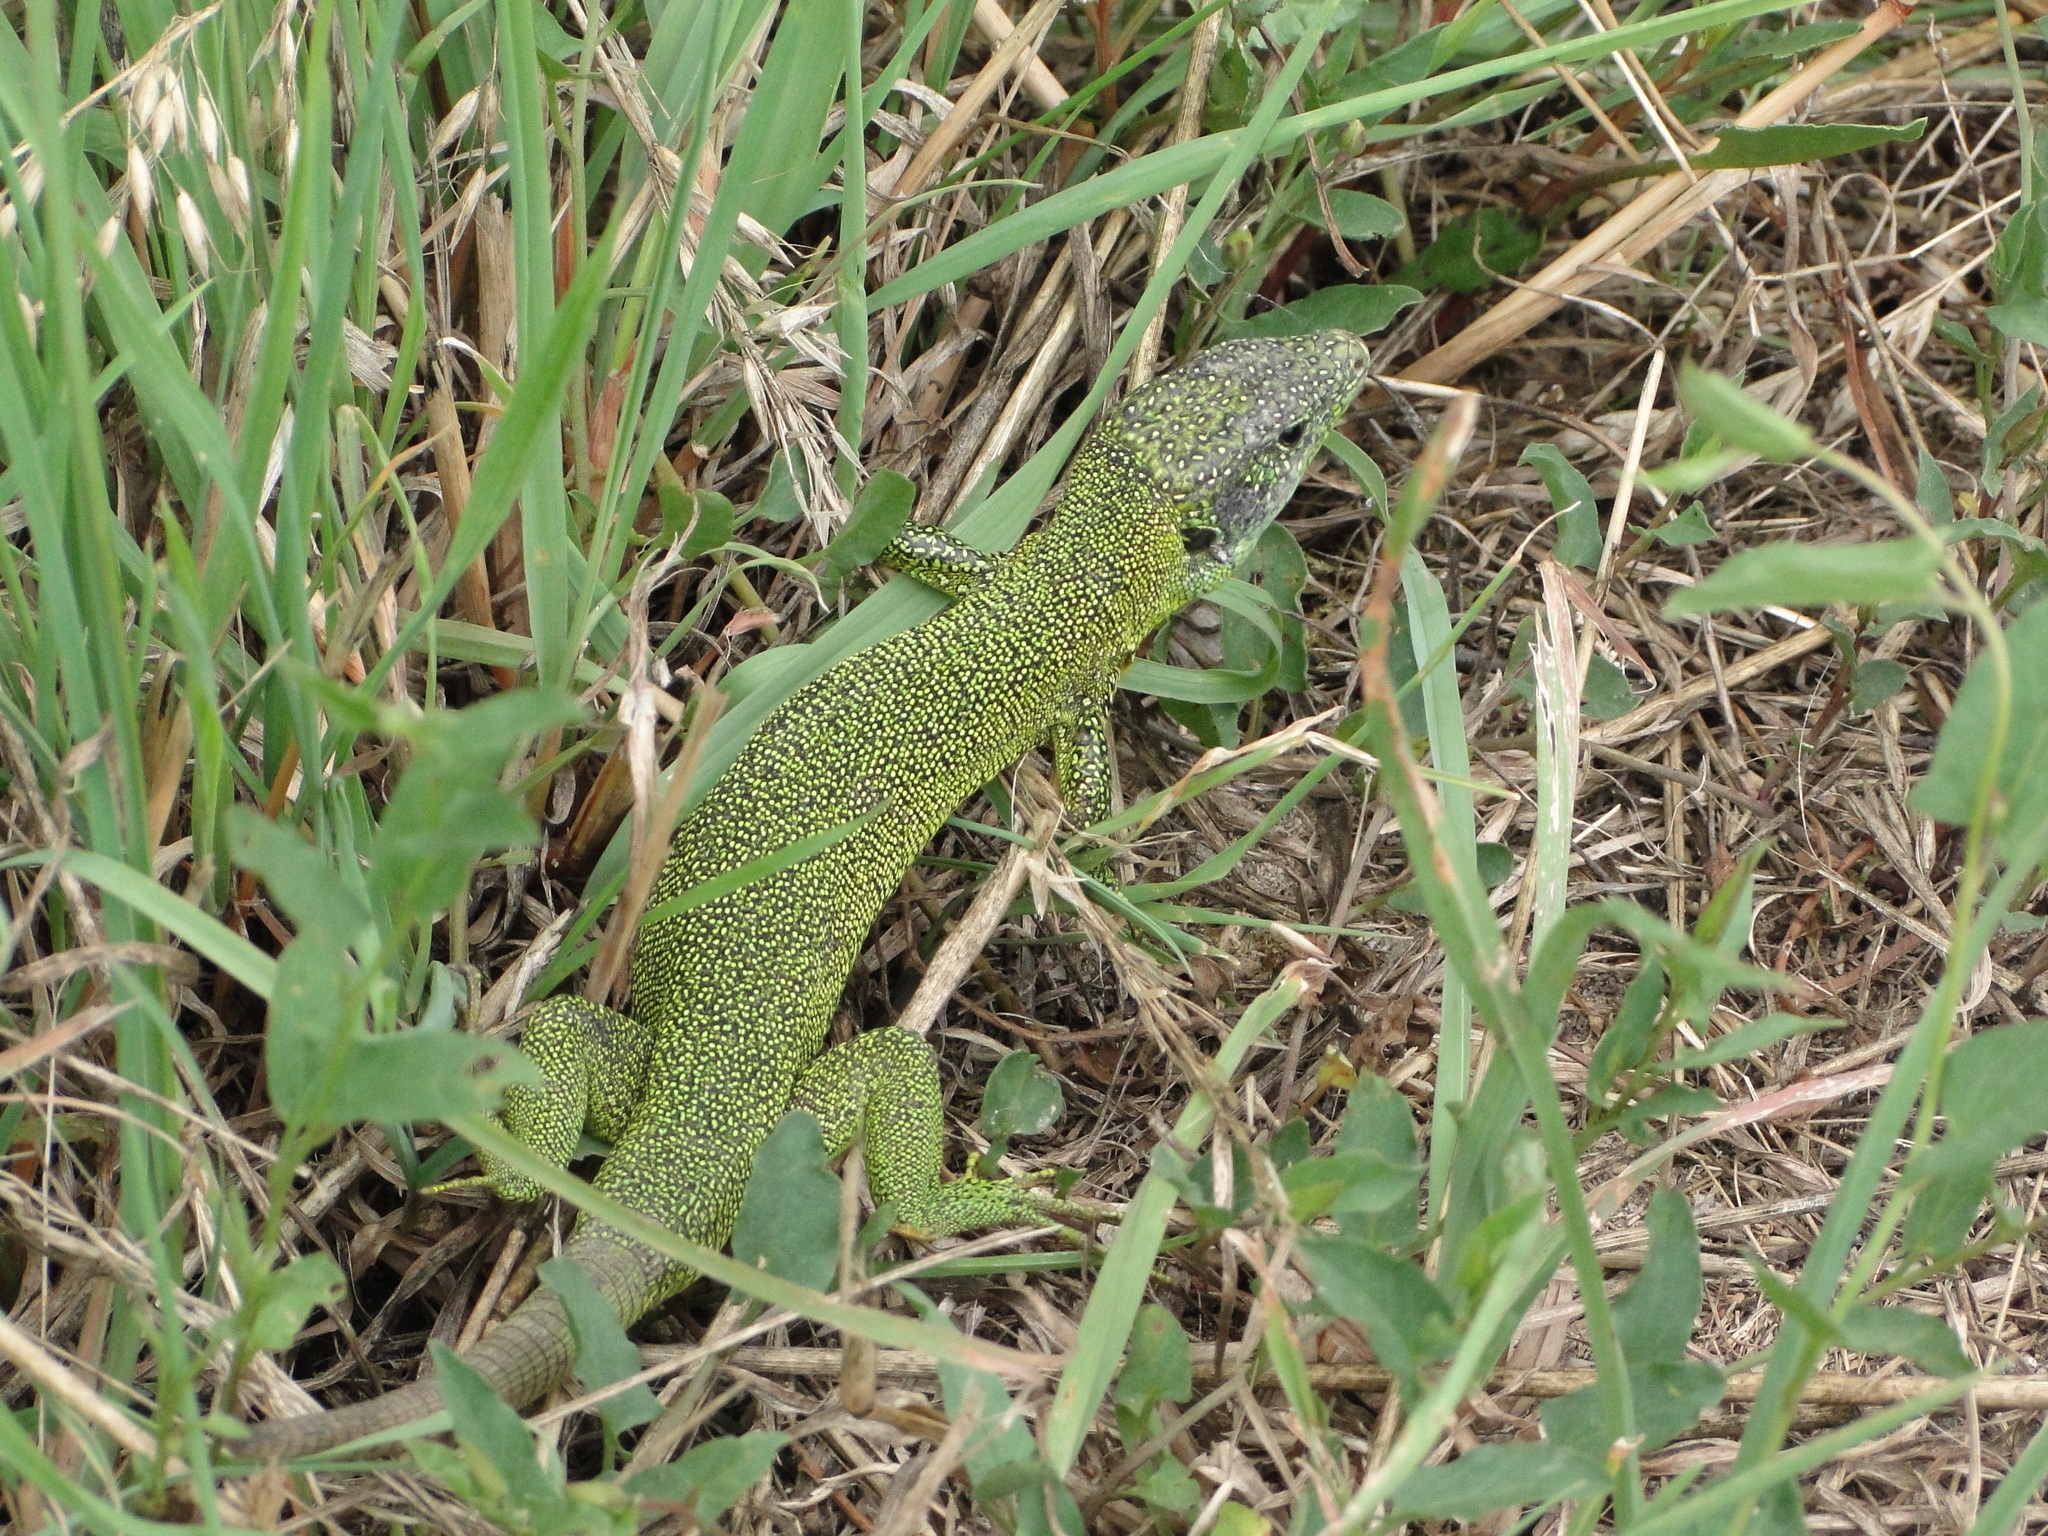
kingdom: Animalia
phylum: Chordata
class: Squamata
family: Lacertidae
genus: Lacerta
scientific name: Lacerta bilineata
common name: Western green lizard
